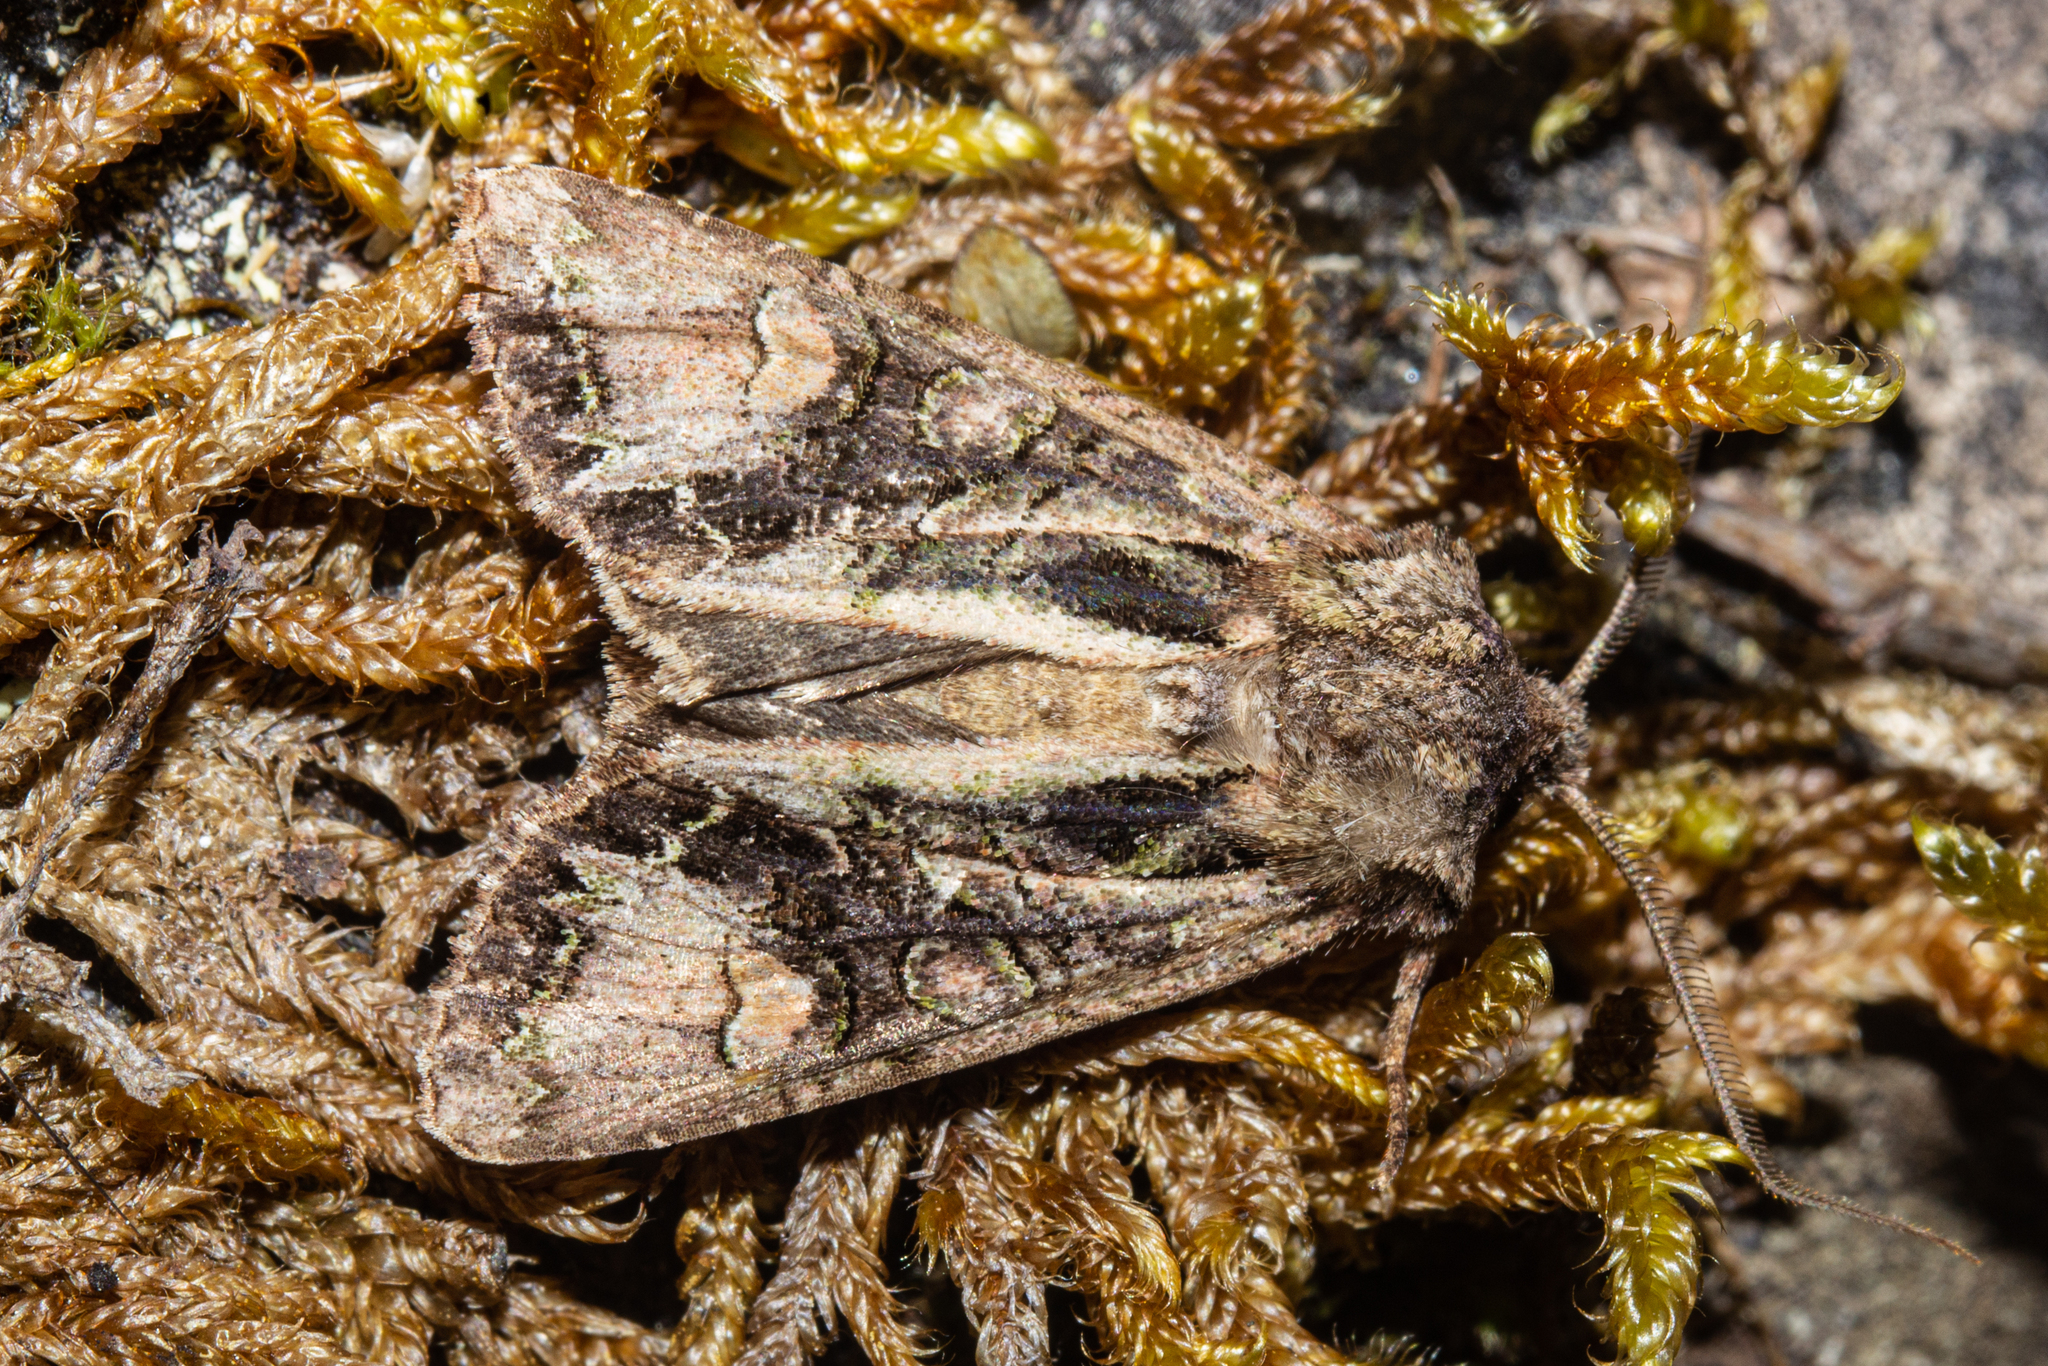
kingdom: Animalia
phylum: Arthropoda
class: Insecta
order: Lepidoptera
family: Noctuidae
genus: Ichneutica
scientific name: Ichneutica skelloni
